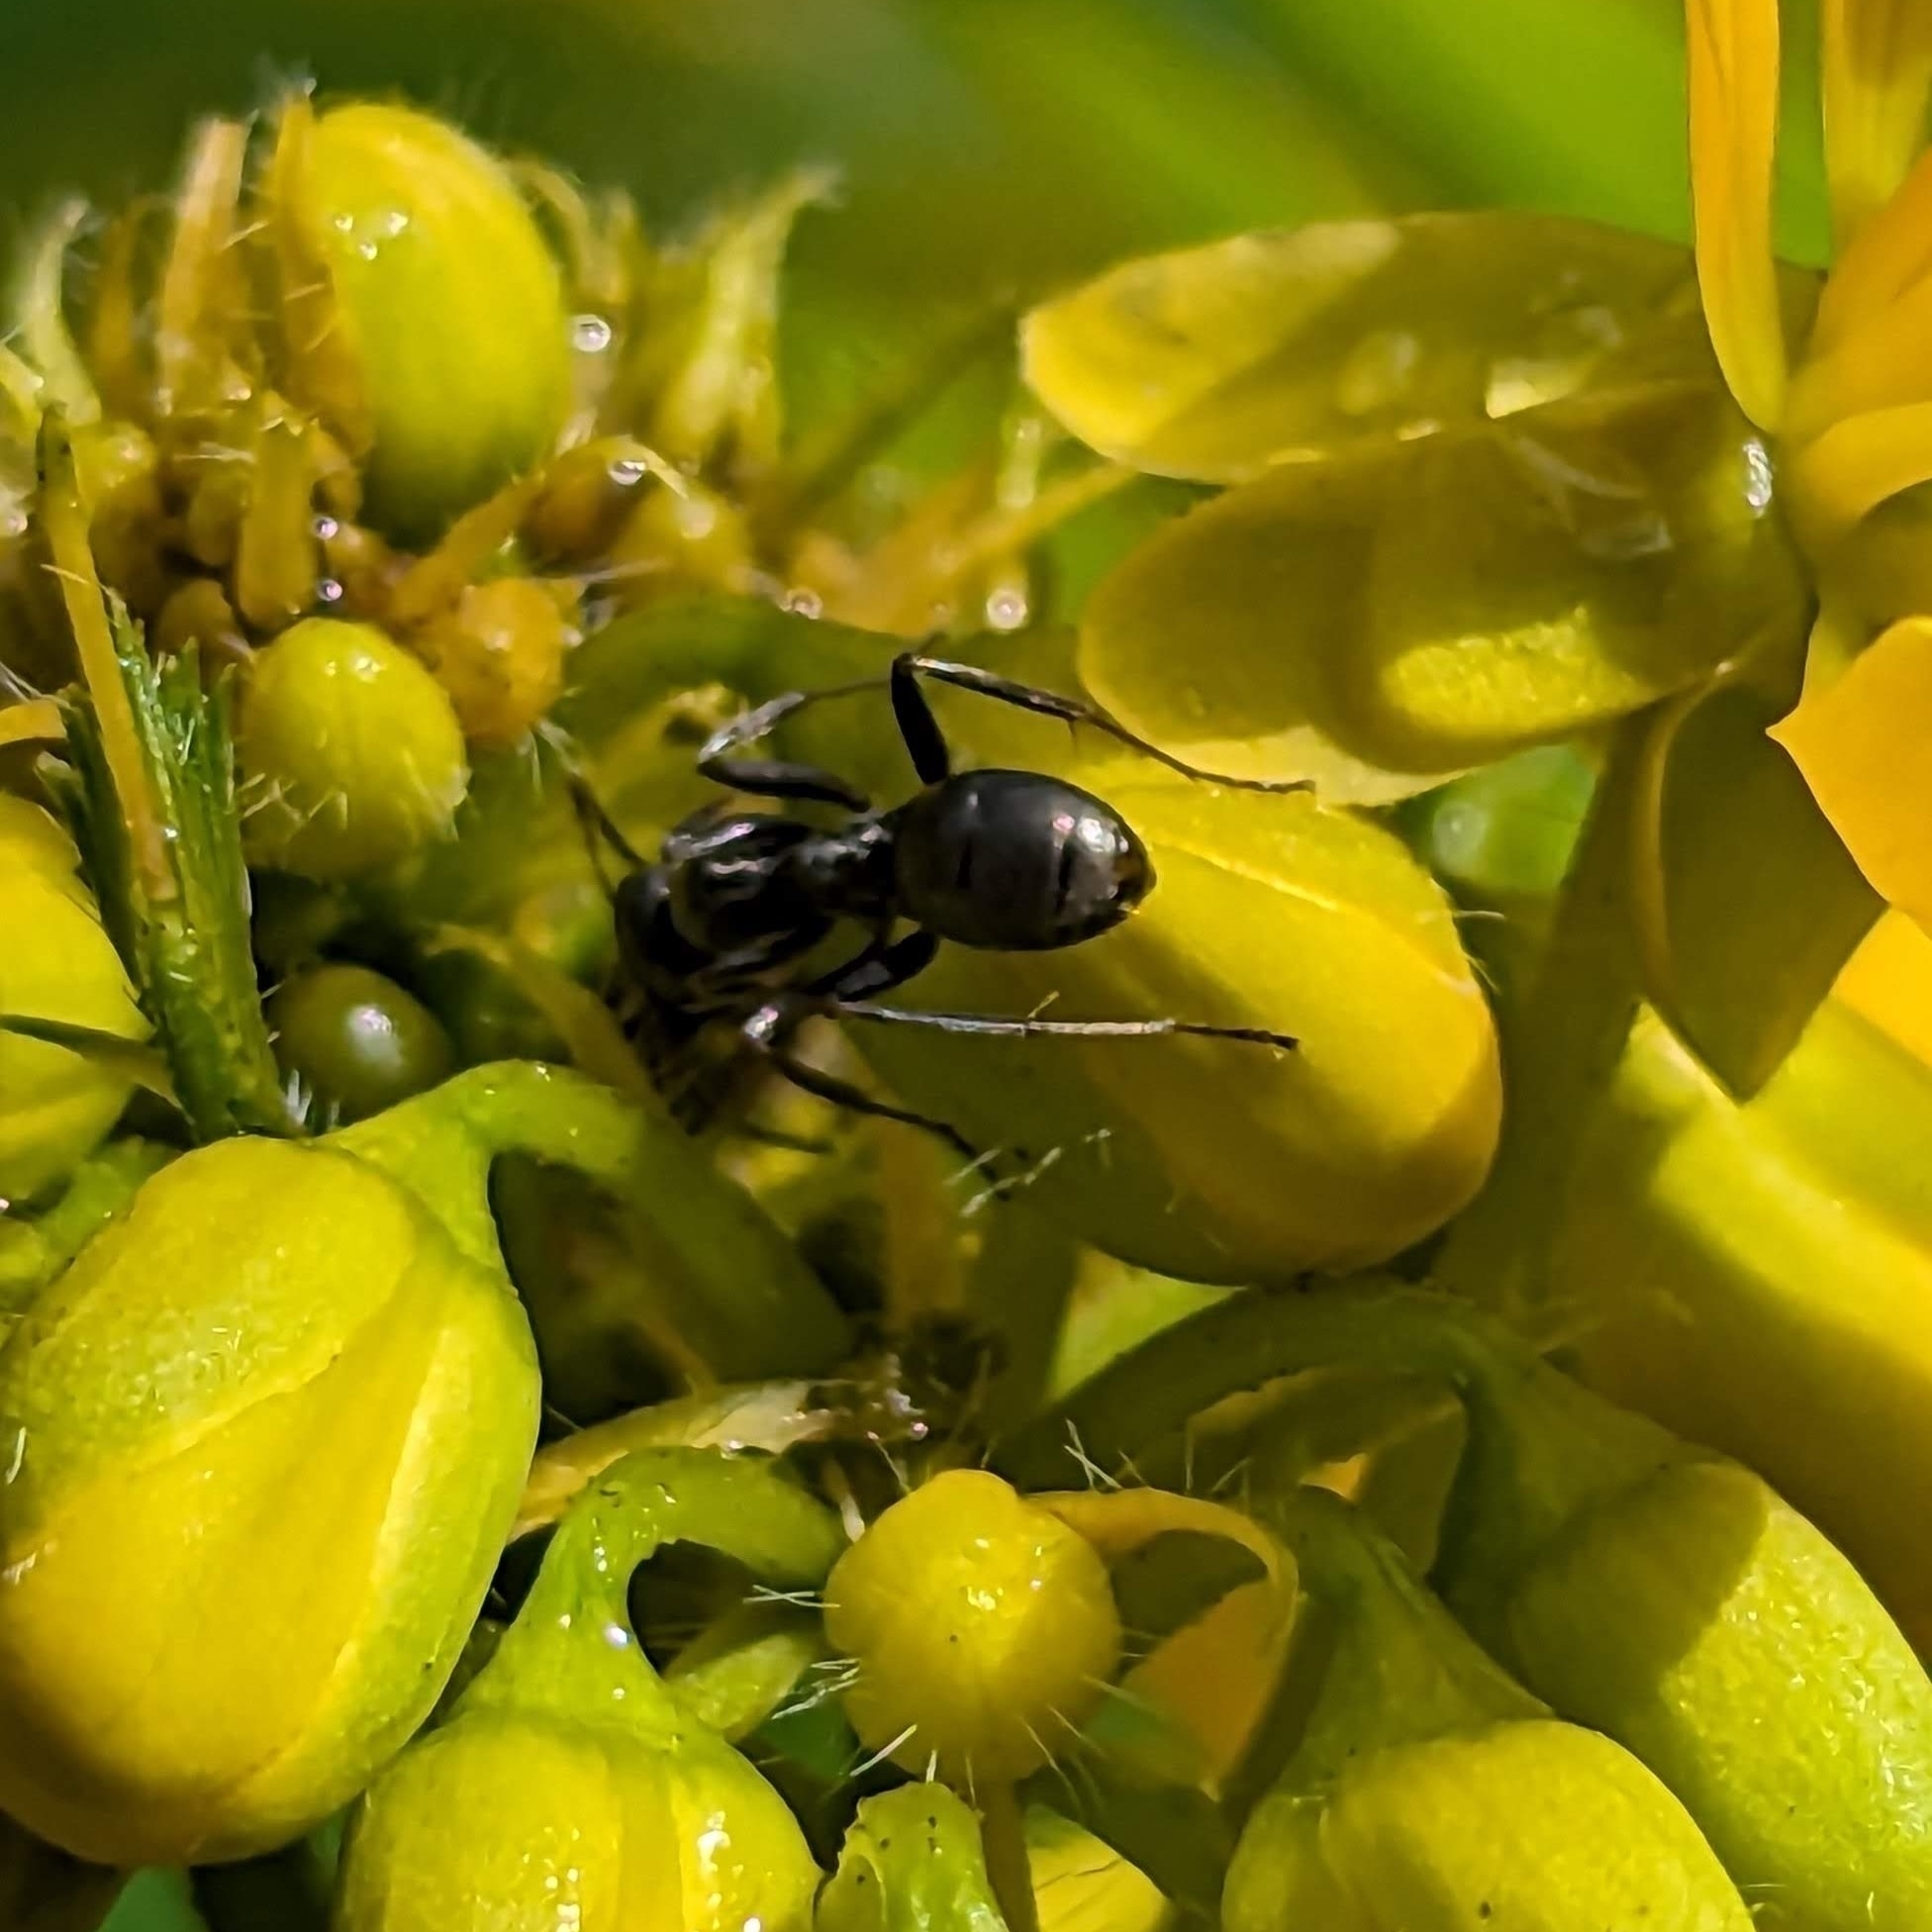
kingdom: Animalia
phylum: Arthropoda
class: Insecta
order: Hymenoptera
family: Formicidae
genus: Formica
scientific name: Formica
